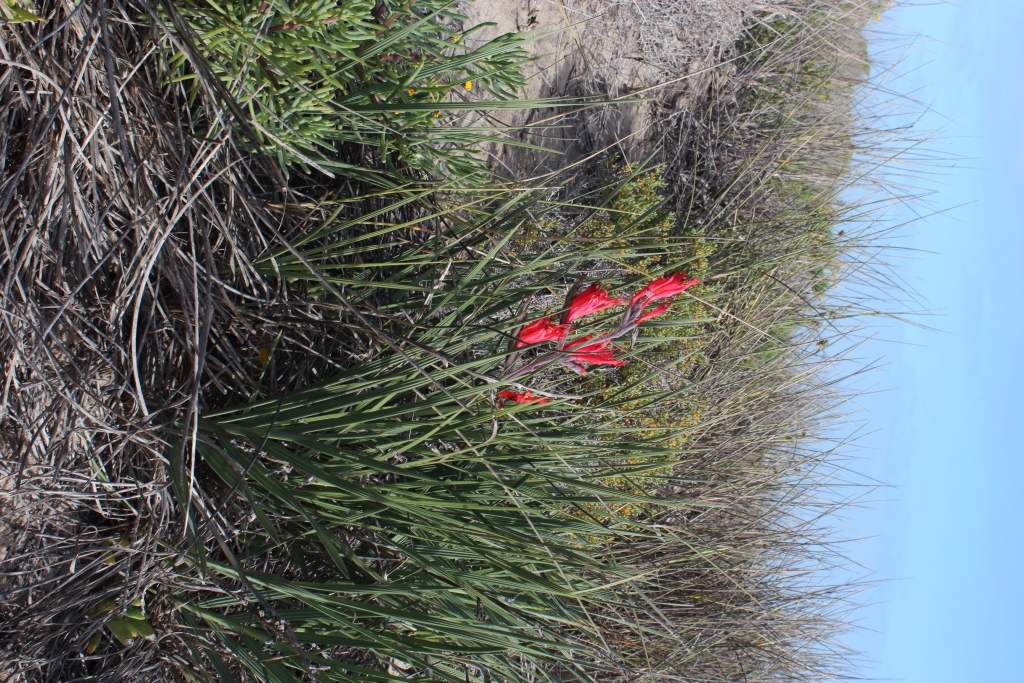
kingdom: Plantae
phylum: Tracheophyta
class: Liliopsida
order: Asparagales
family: Iridaceae
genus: Babiana
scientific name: Babiana hirsuta
